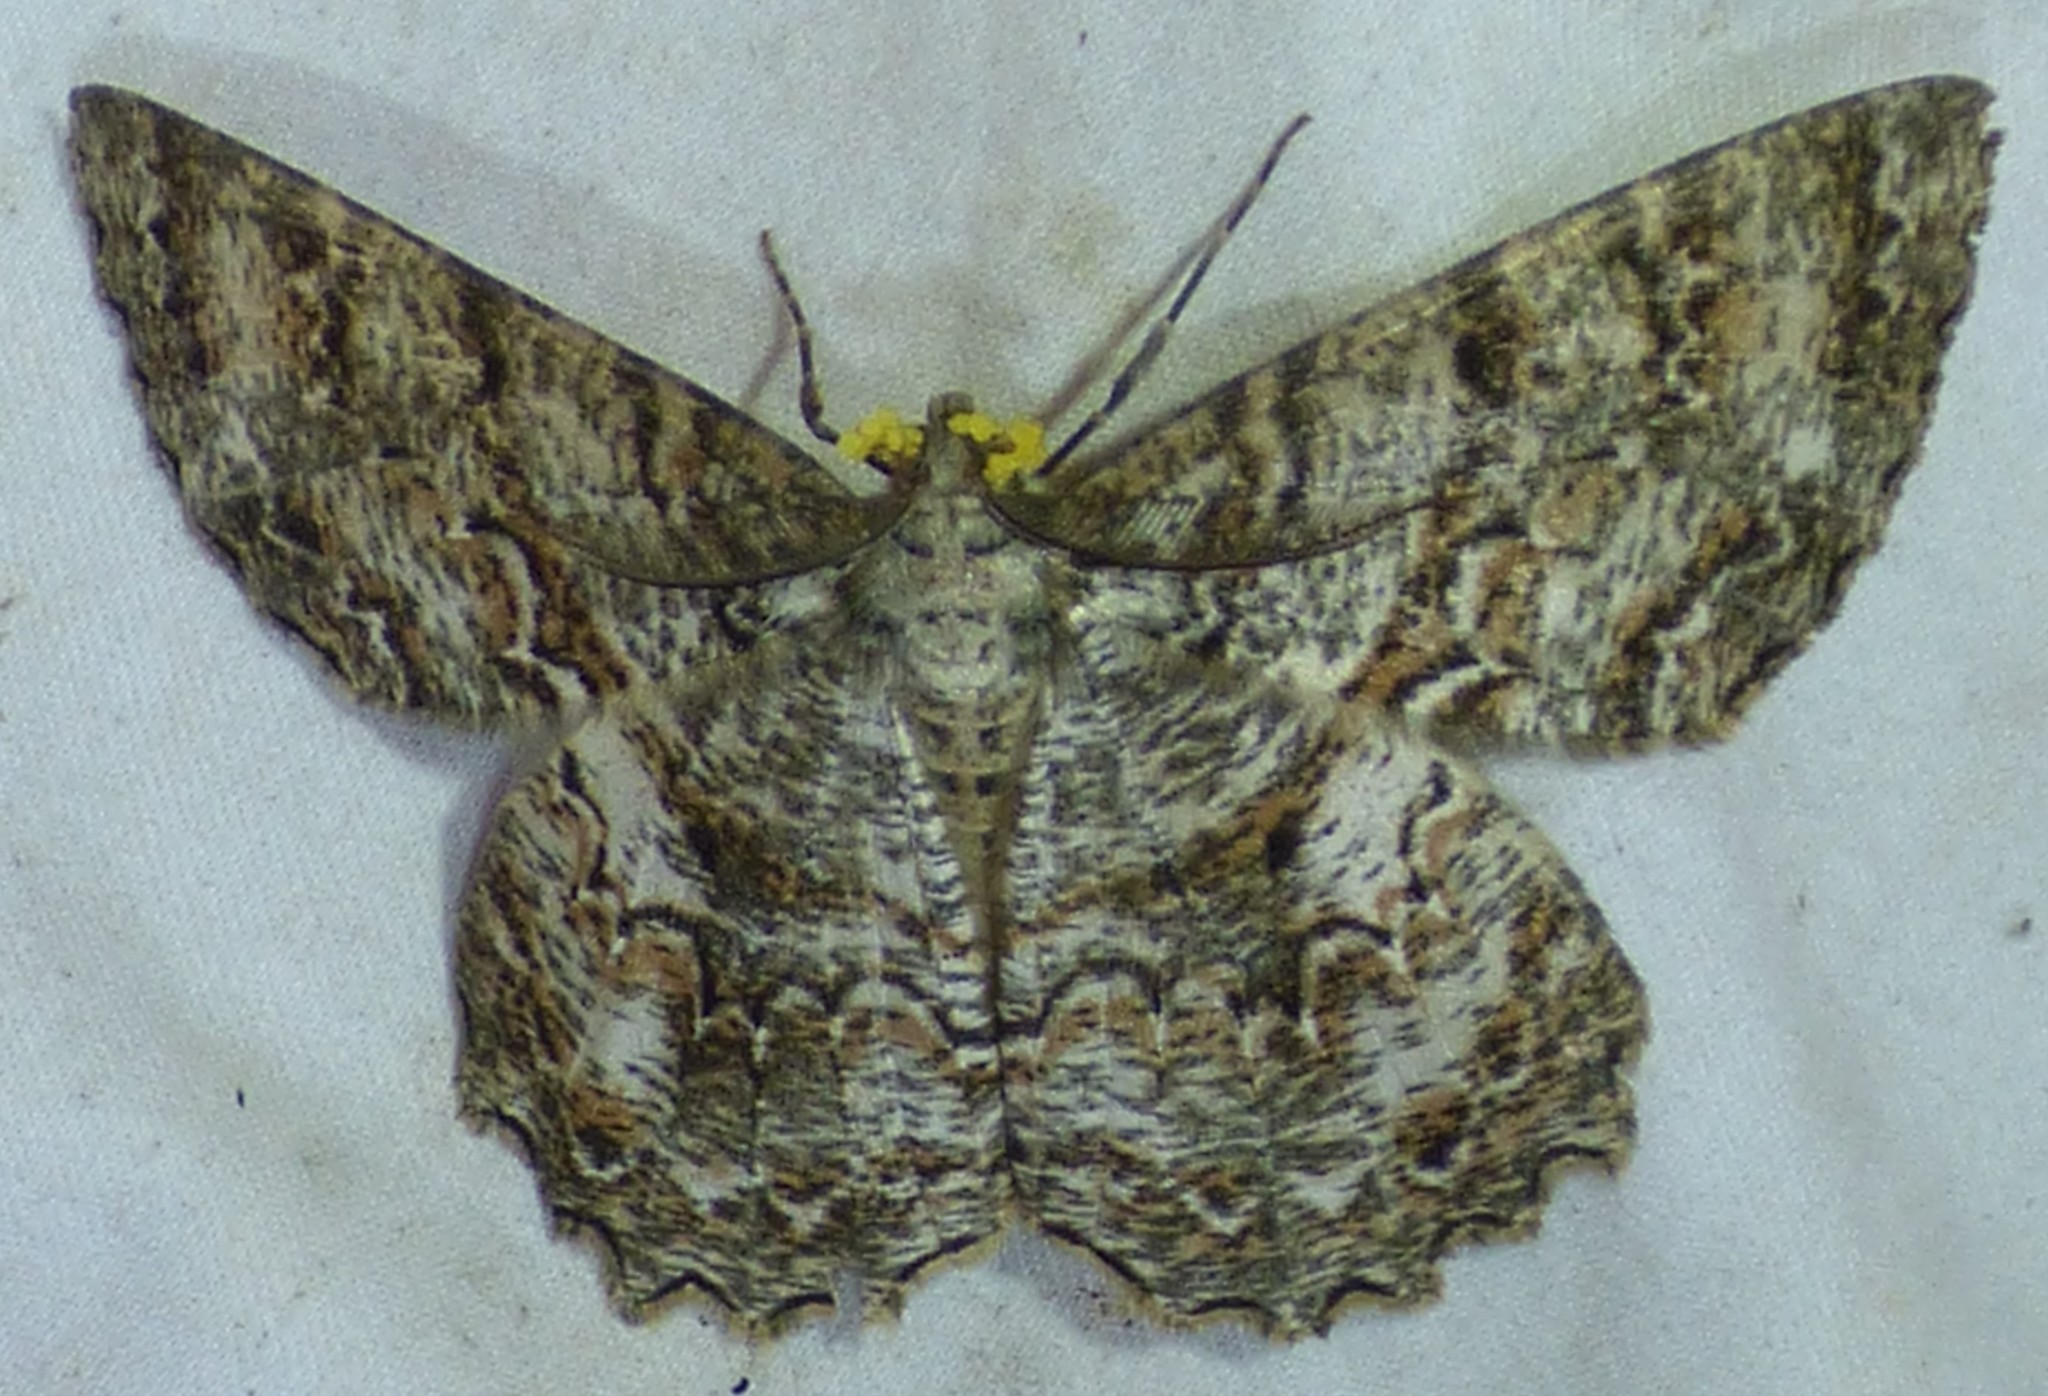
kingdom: Animalia
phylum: Arthropoda
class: Insecta
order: Lepidoptera
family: Geometridae
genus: Epimecis
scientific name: Epimecis hortaria
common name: Tulip-tree beauty
